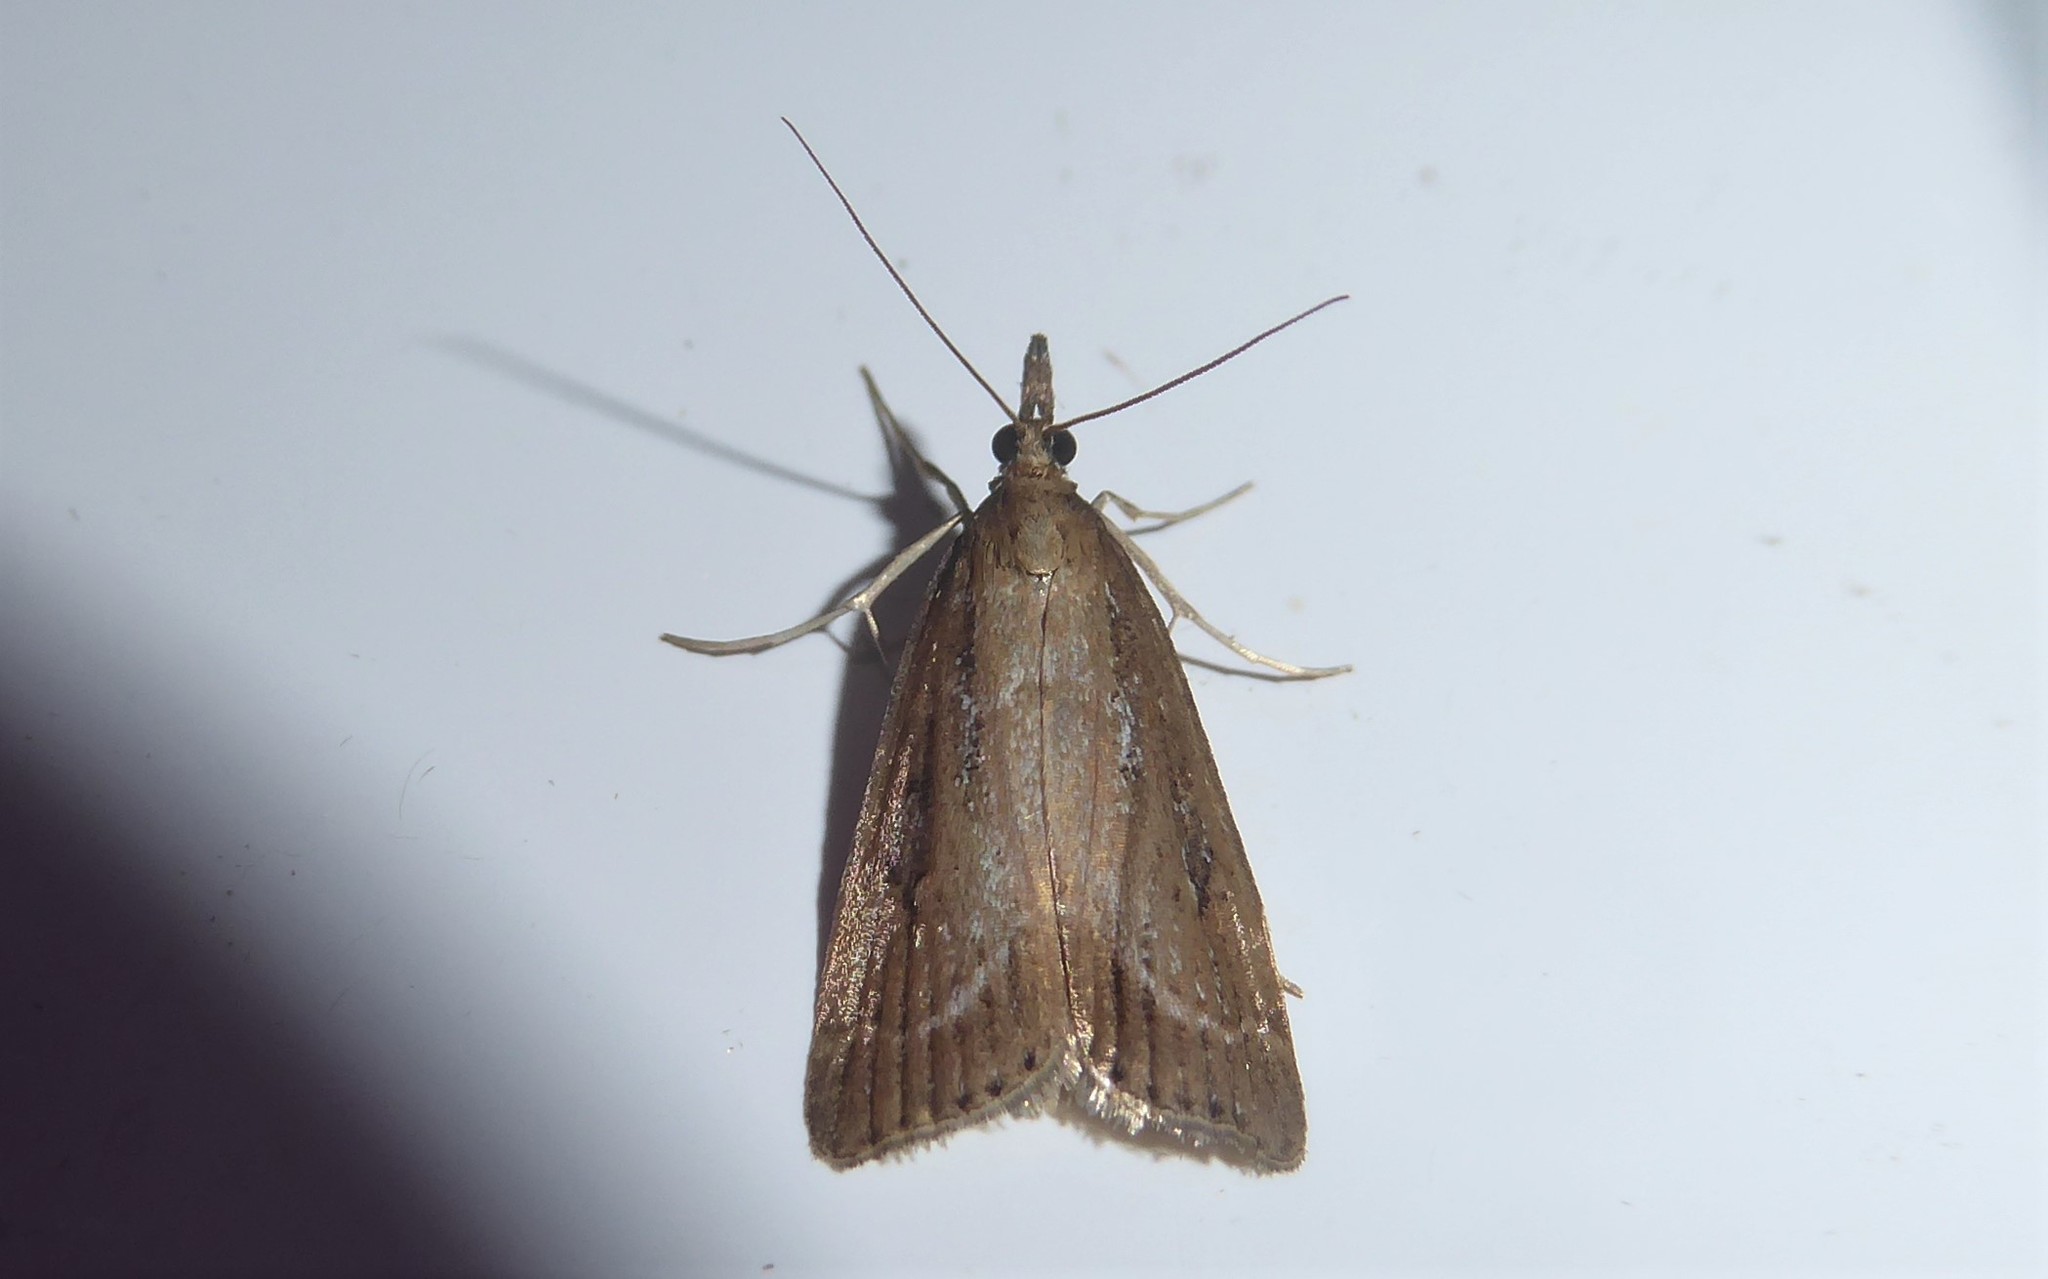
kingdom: Animalia
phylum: Arthropoda
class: Insecta
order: Lepidoptera
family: Crambidae
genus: Eudonia
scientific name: Eudonia octophora
